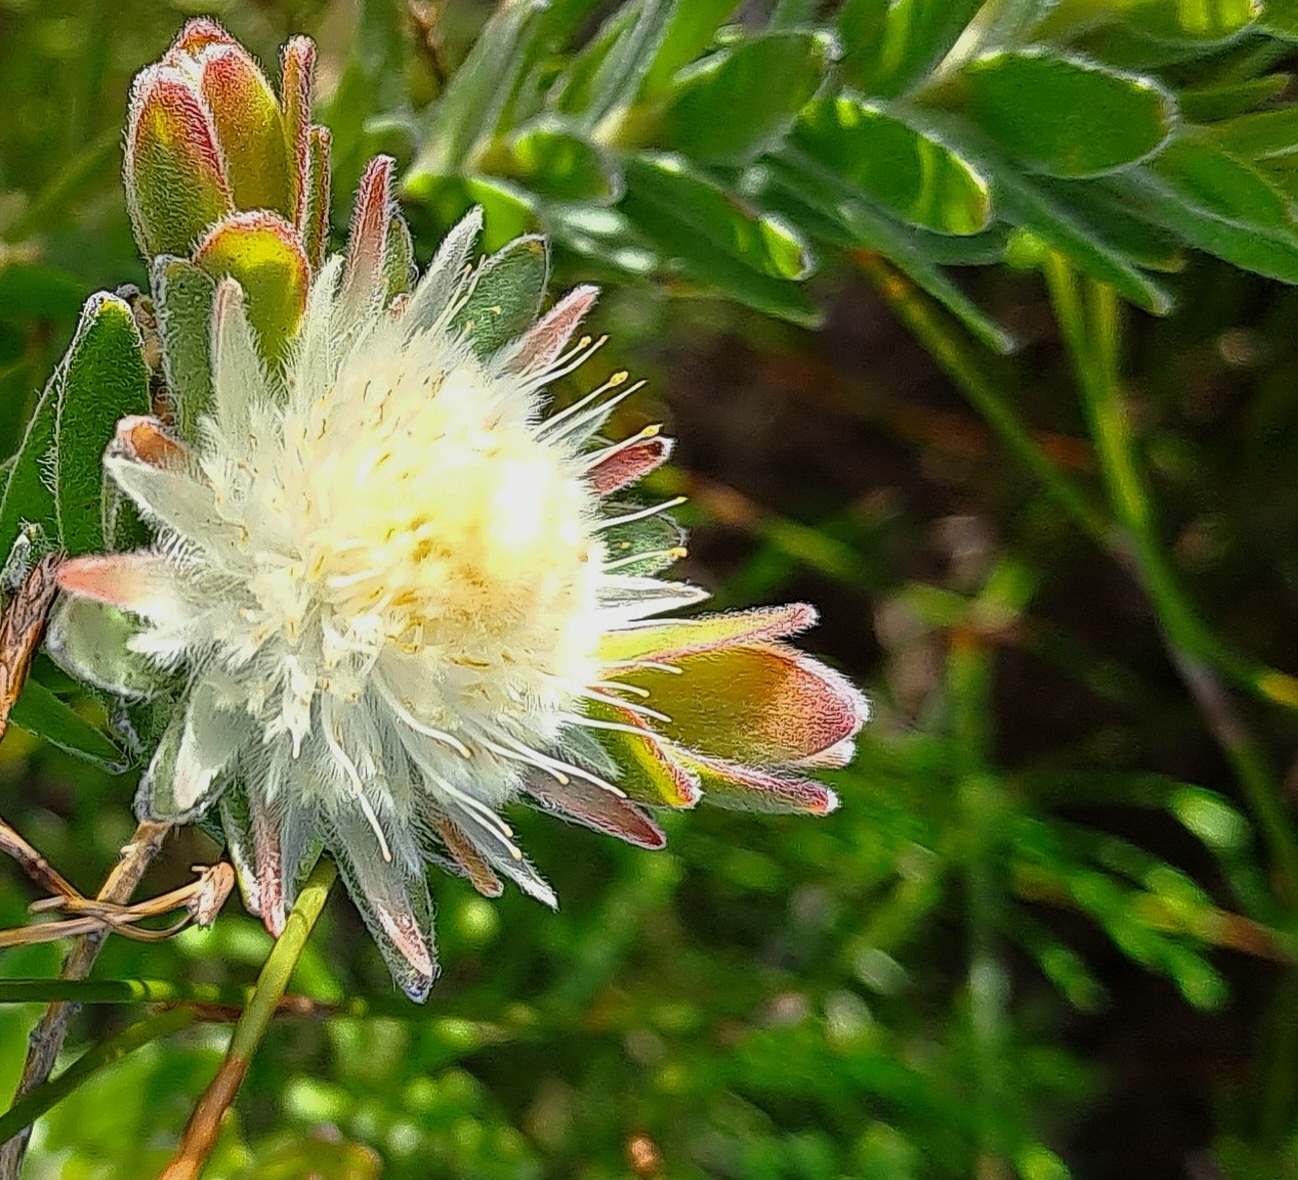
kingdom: Plantae
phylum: Tracheophyta
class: Magnoliopsida
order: Proteales
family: Proteaceae
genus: Diastella
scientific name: Diastella thymelaeoides
